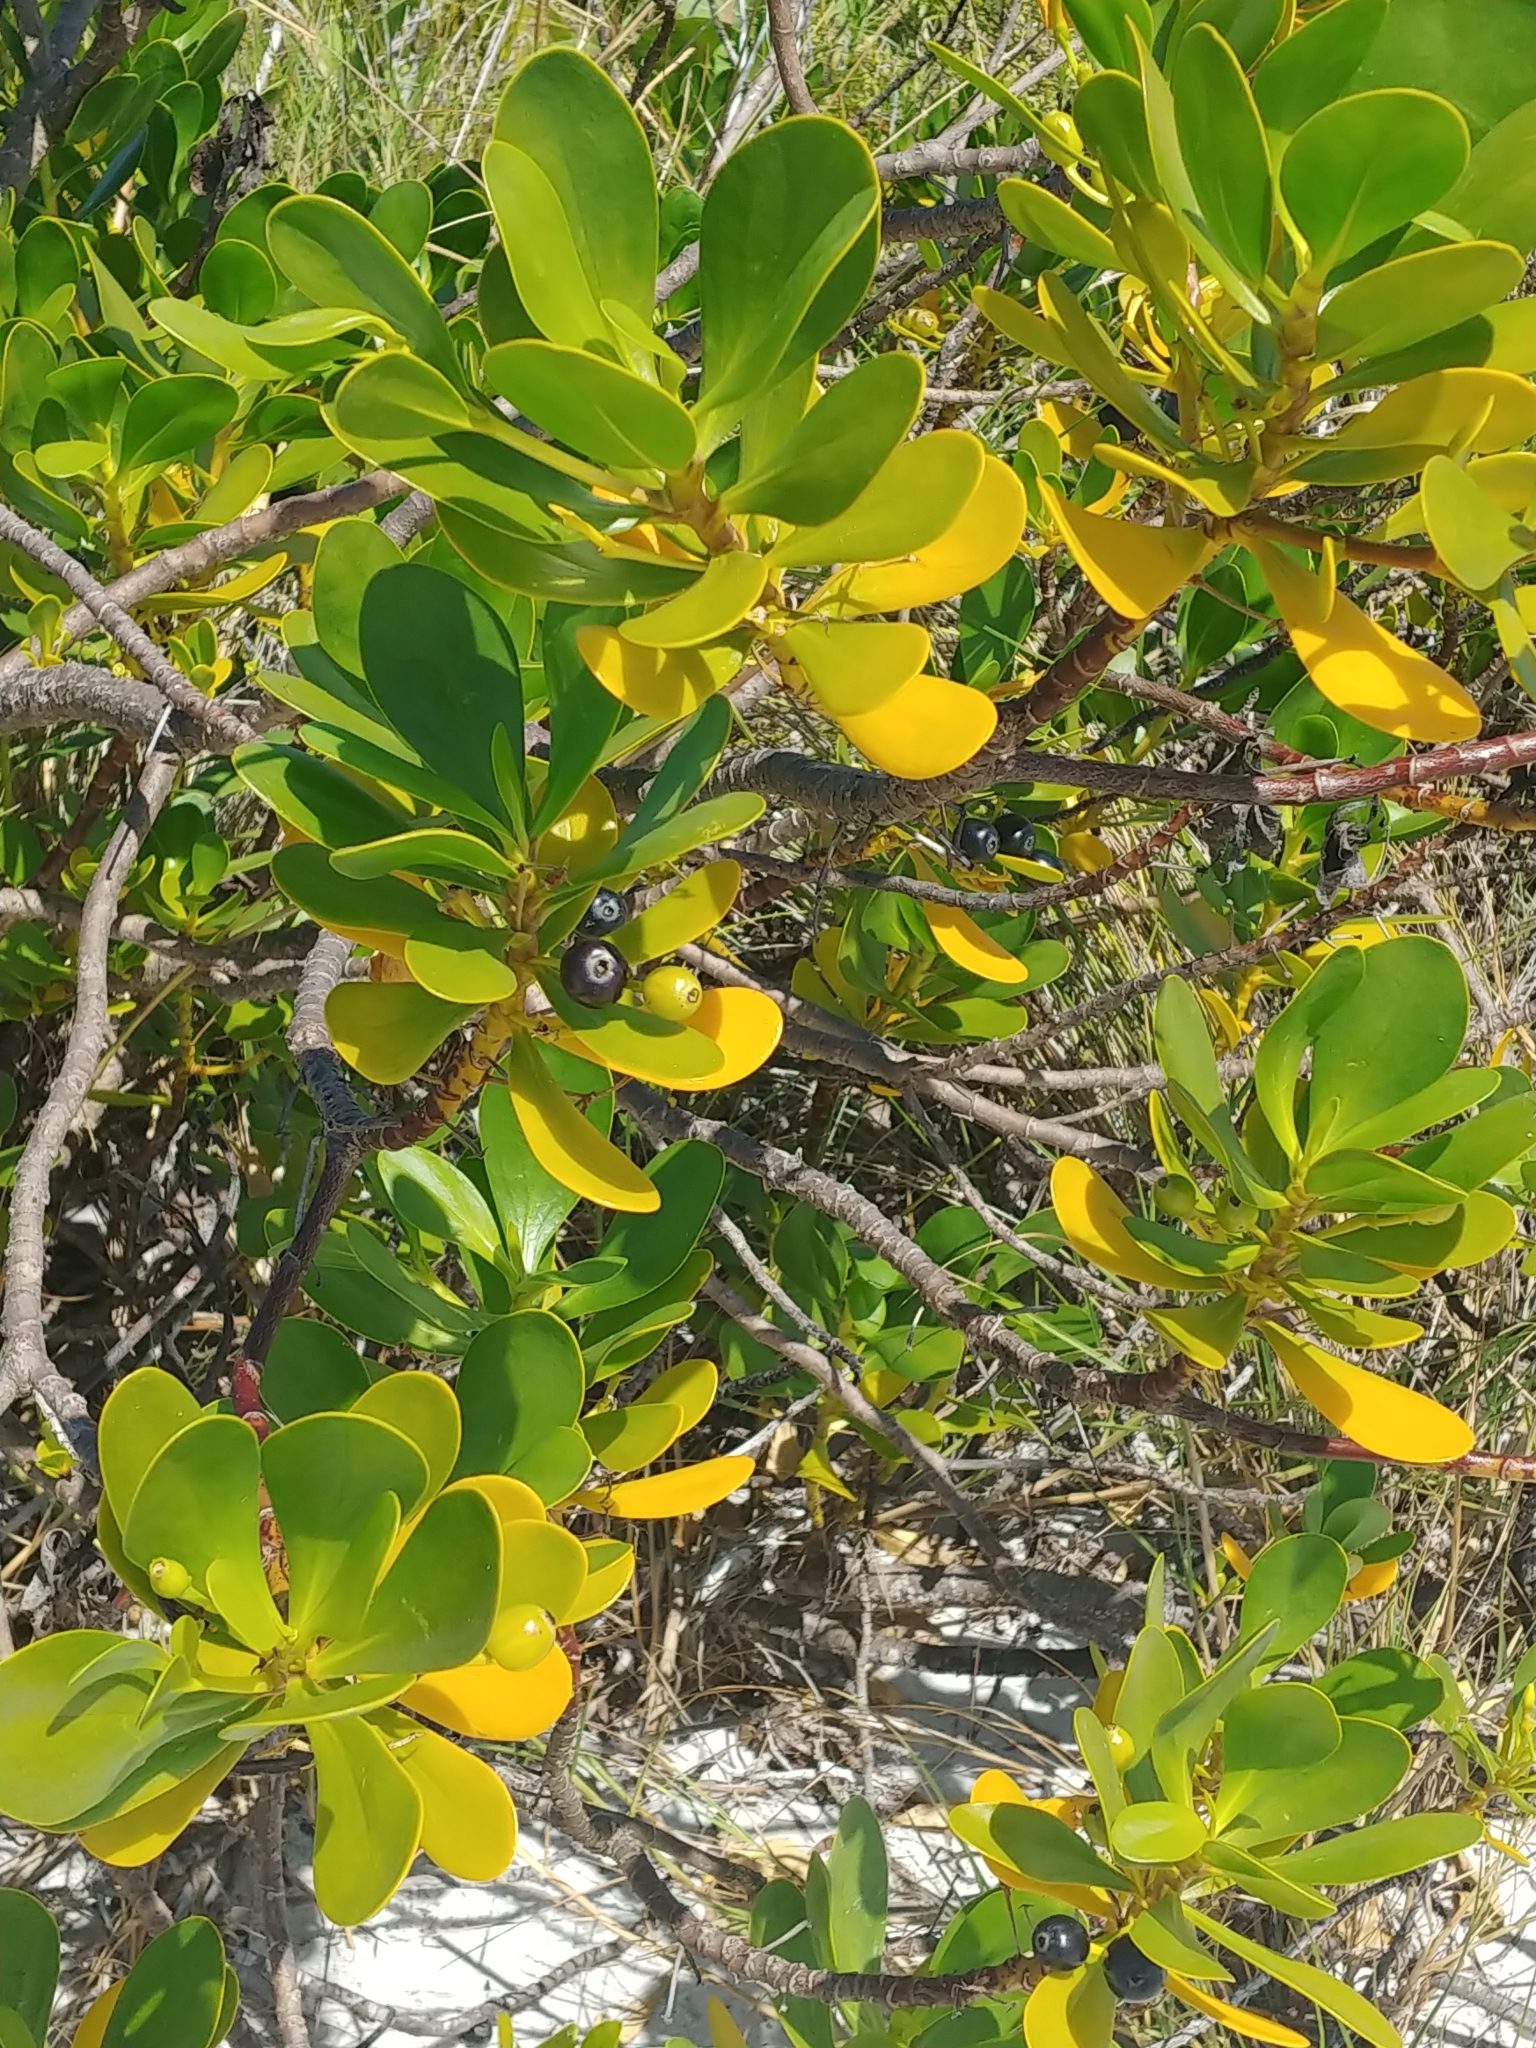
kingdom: Plantae
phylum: Tracheophyta
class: Magnoliopsida
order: Asterales
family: Goodeniaceae
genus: Scaevola
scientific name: Scaevola plumieri
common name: Gull feed
